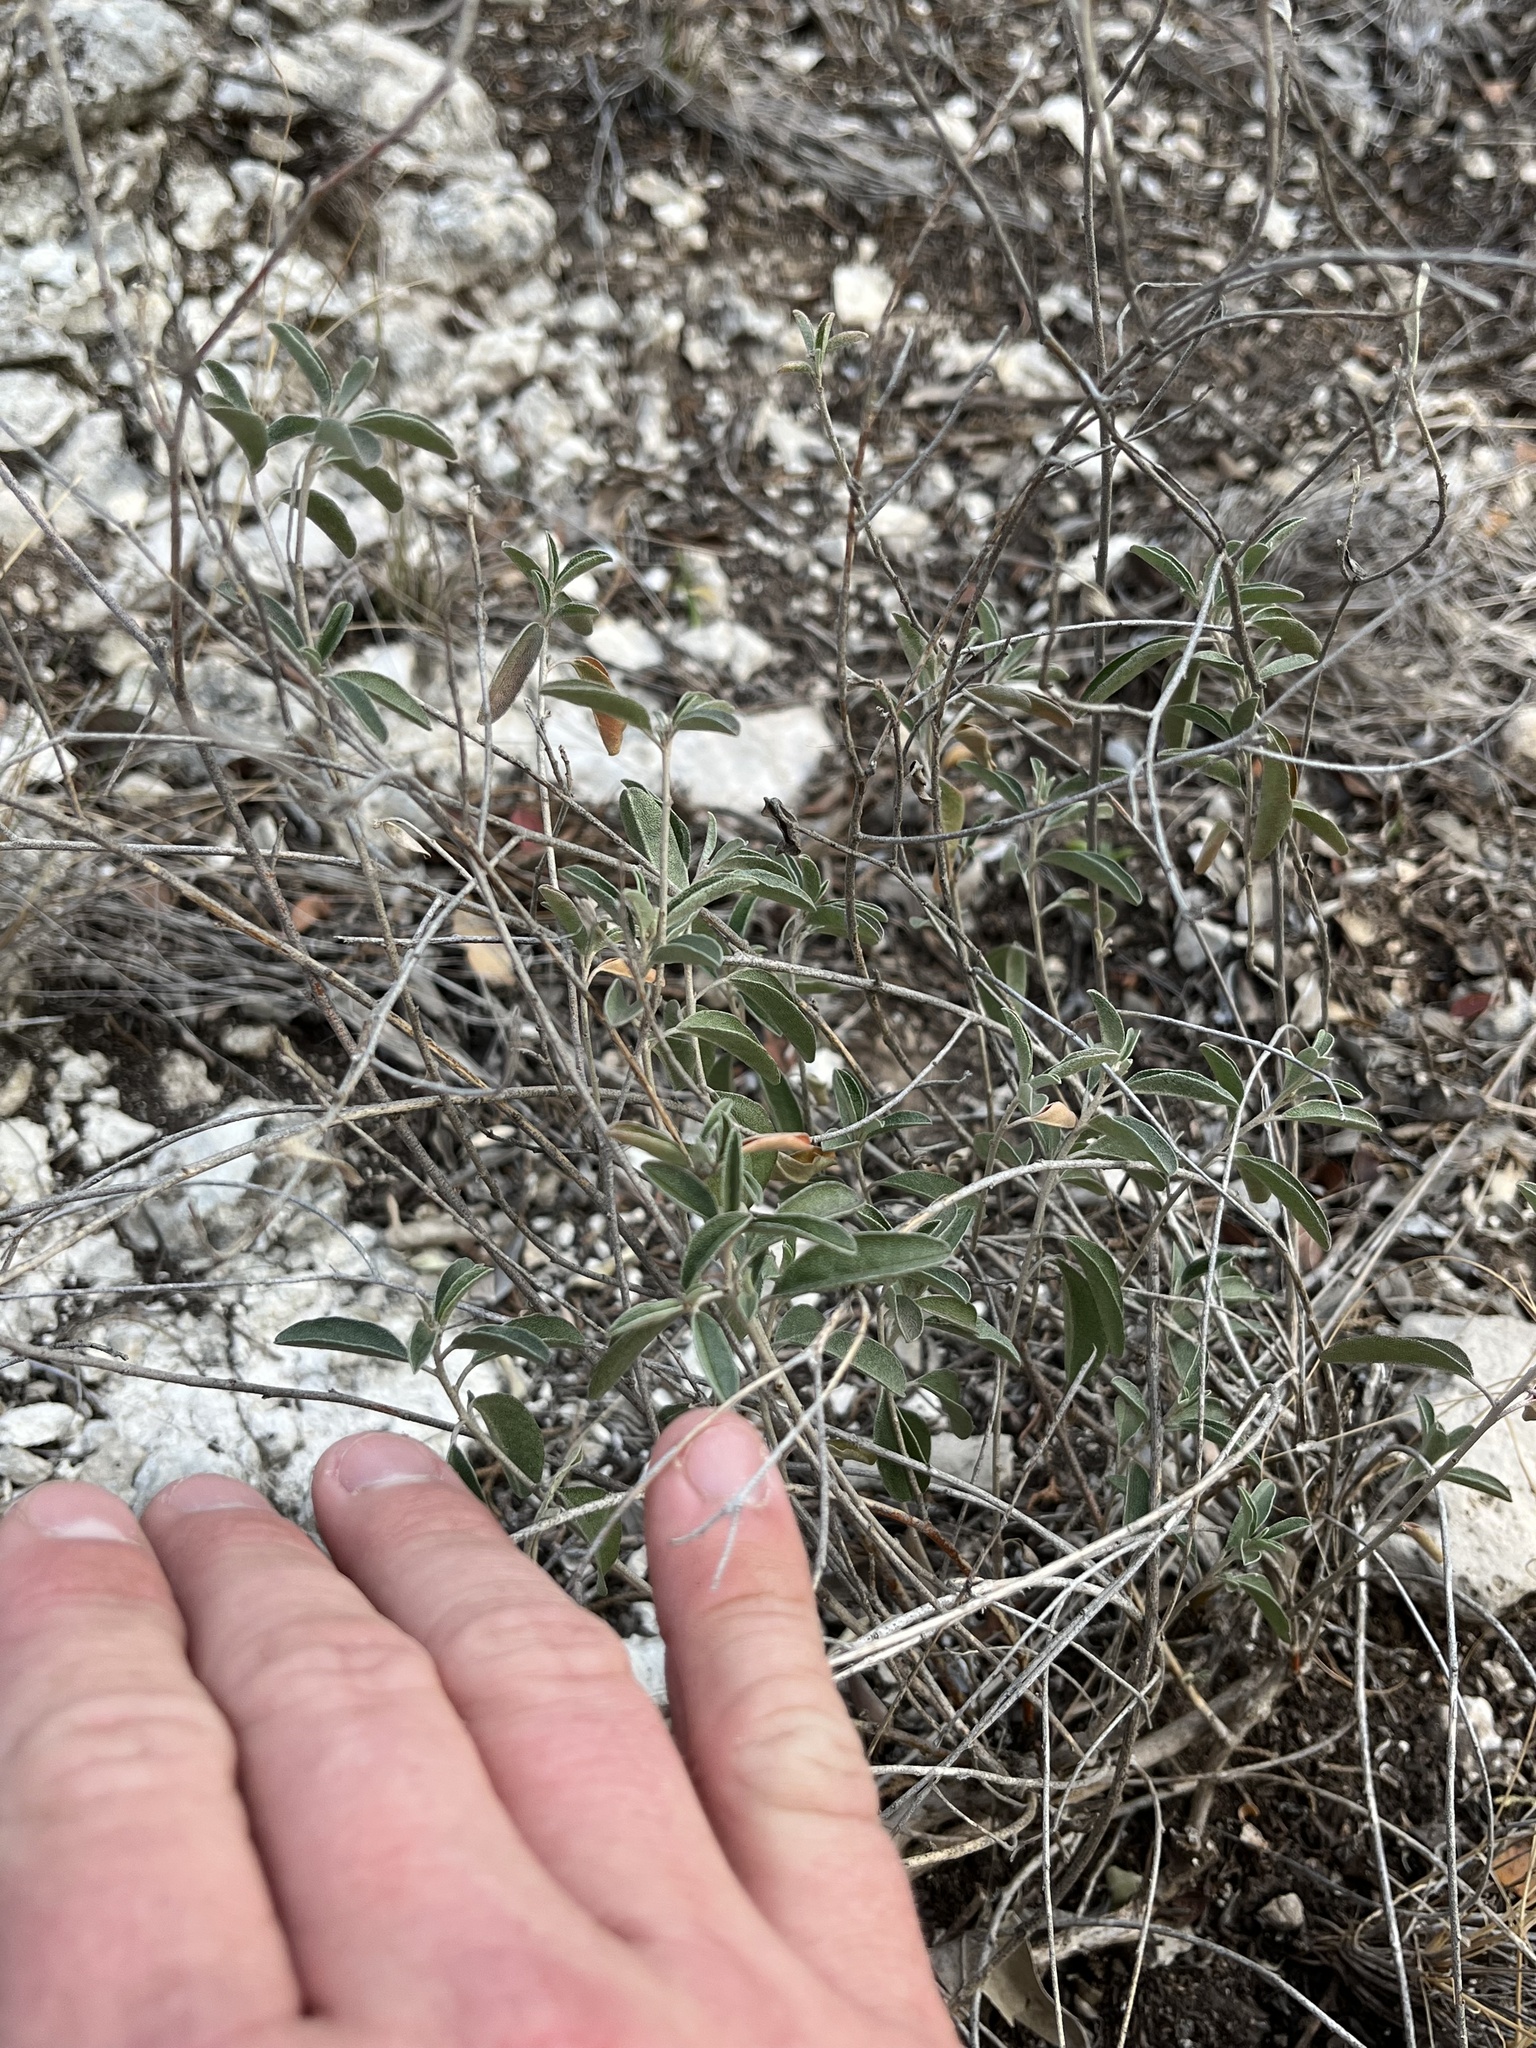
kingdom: Plantae
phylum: Tracheophyta
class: Magnoliopsida
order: Malpighiales
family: Euphorbiaceae
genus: Croton
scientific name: Croton dioicus
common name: Grassland croton
